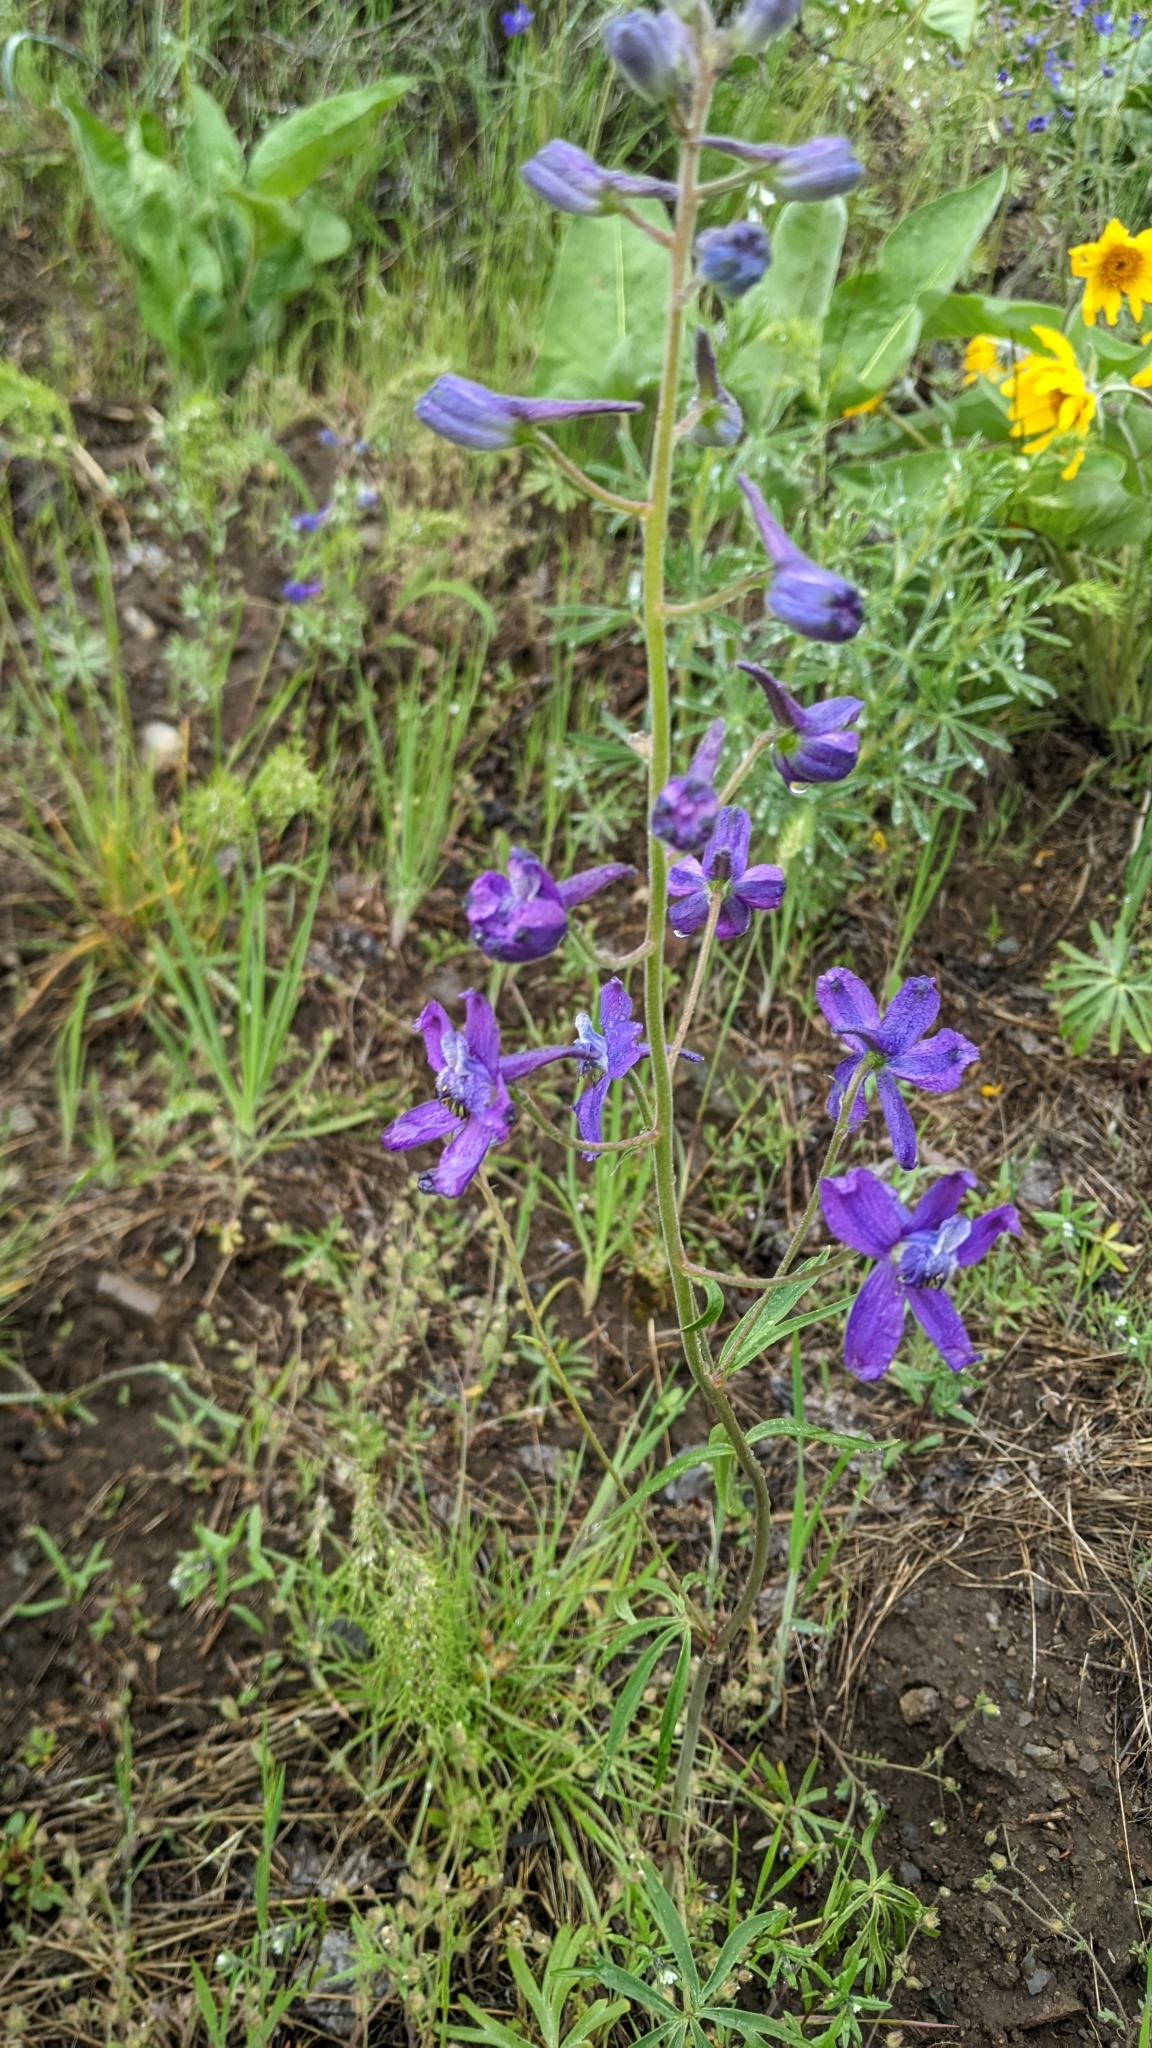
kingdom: Plantae
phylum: Tracheophyta
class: Magnoliopsida
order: Ranunculales
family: Ranunculaceae
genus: Delphinium
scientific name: Delphinium nuttallianum
